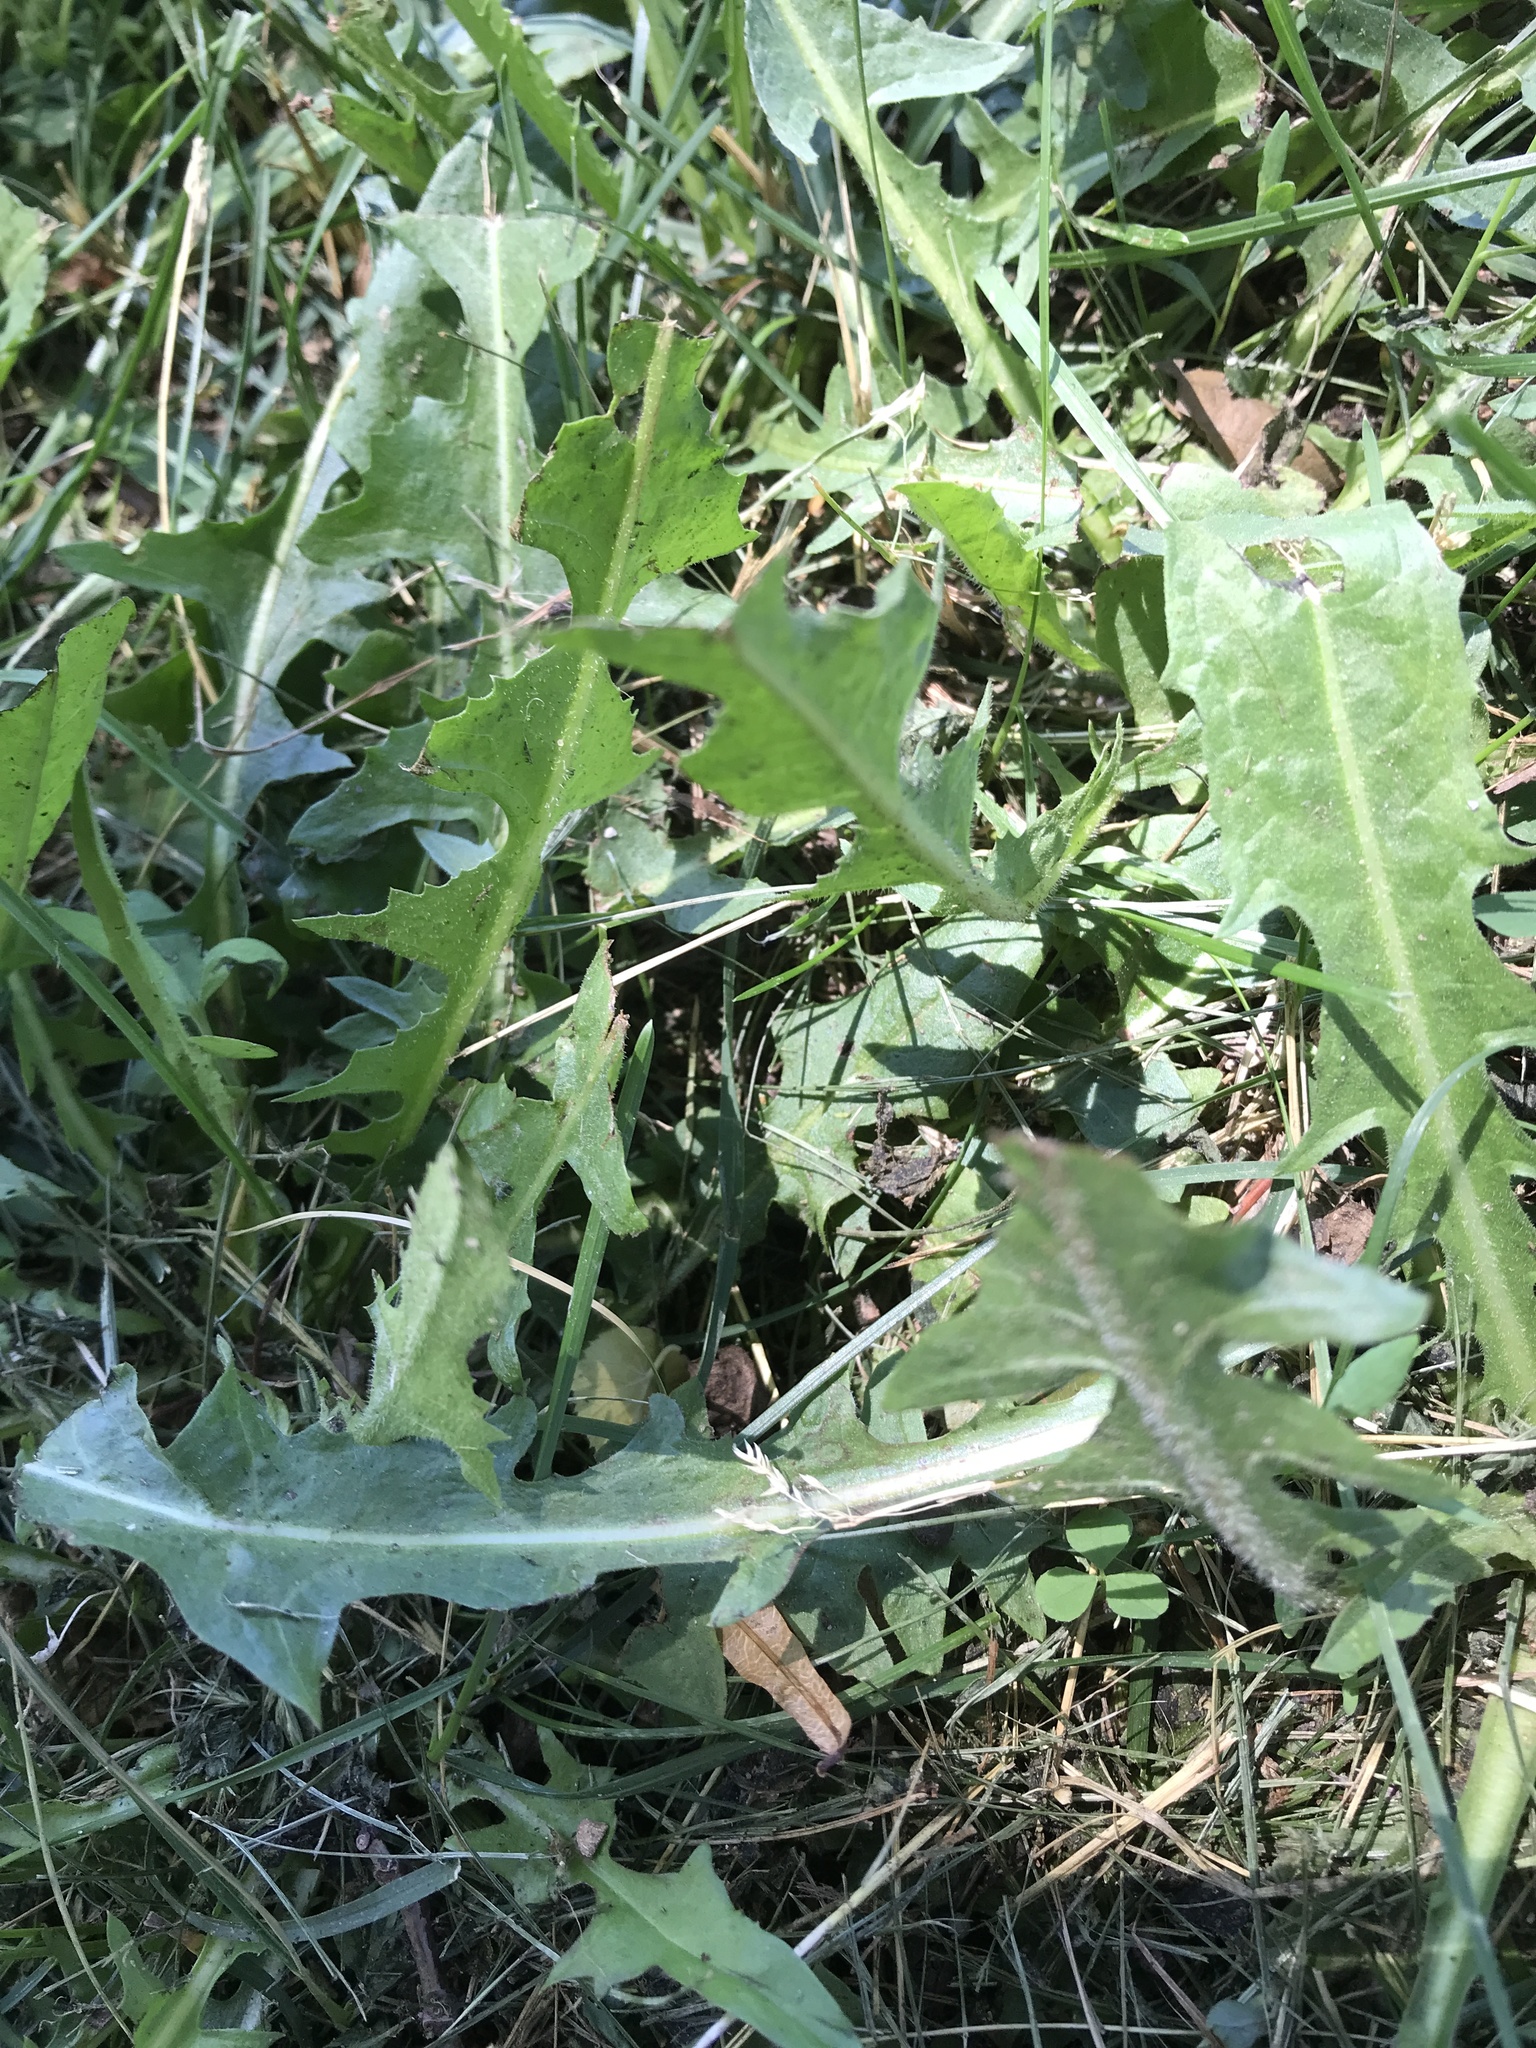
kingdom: Plantae
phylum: Tracheophyta
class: Magnoliopsida
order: Asterales
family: Asteraceae
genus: Taraxacum
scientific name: Taraxacum officinale
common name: Common dandelion
